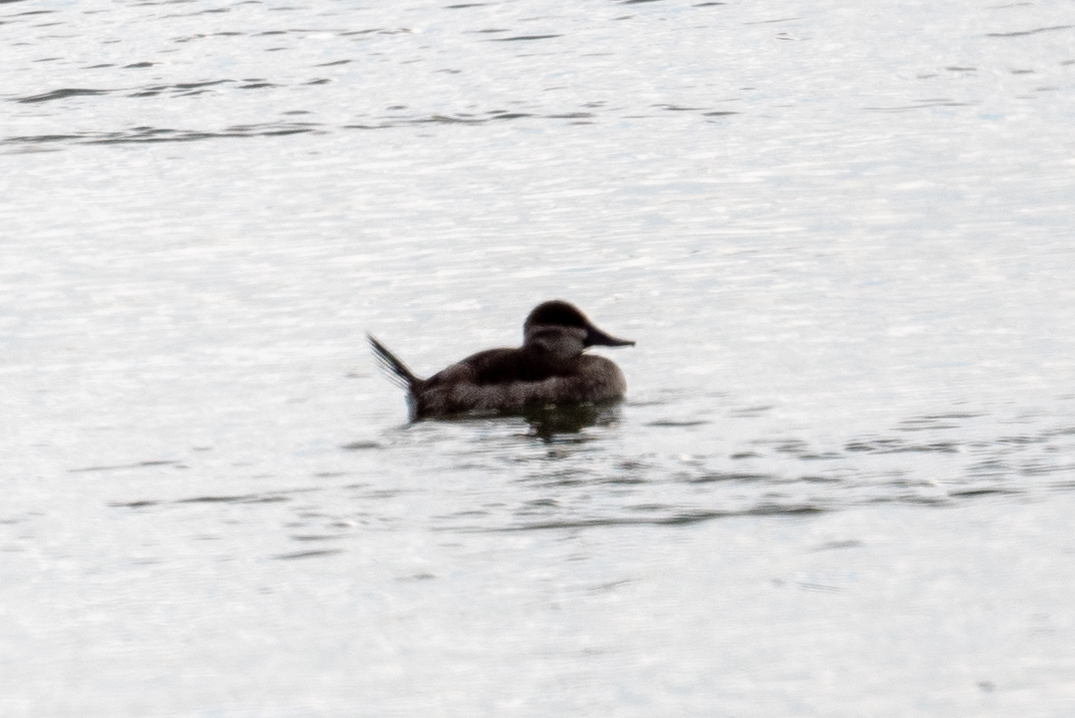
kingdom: Animalia
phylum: Chordata
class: Aves
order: Anseriformes
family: Anatidae
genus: Oxyura
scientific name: Oxyura jamaicensis
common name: Ruddy duck
